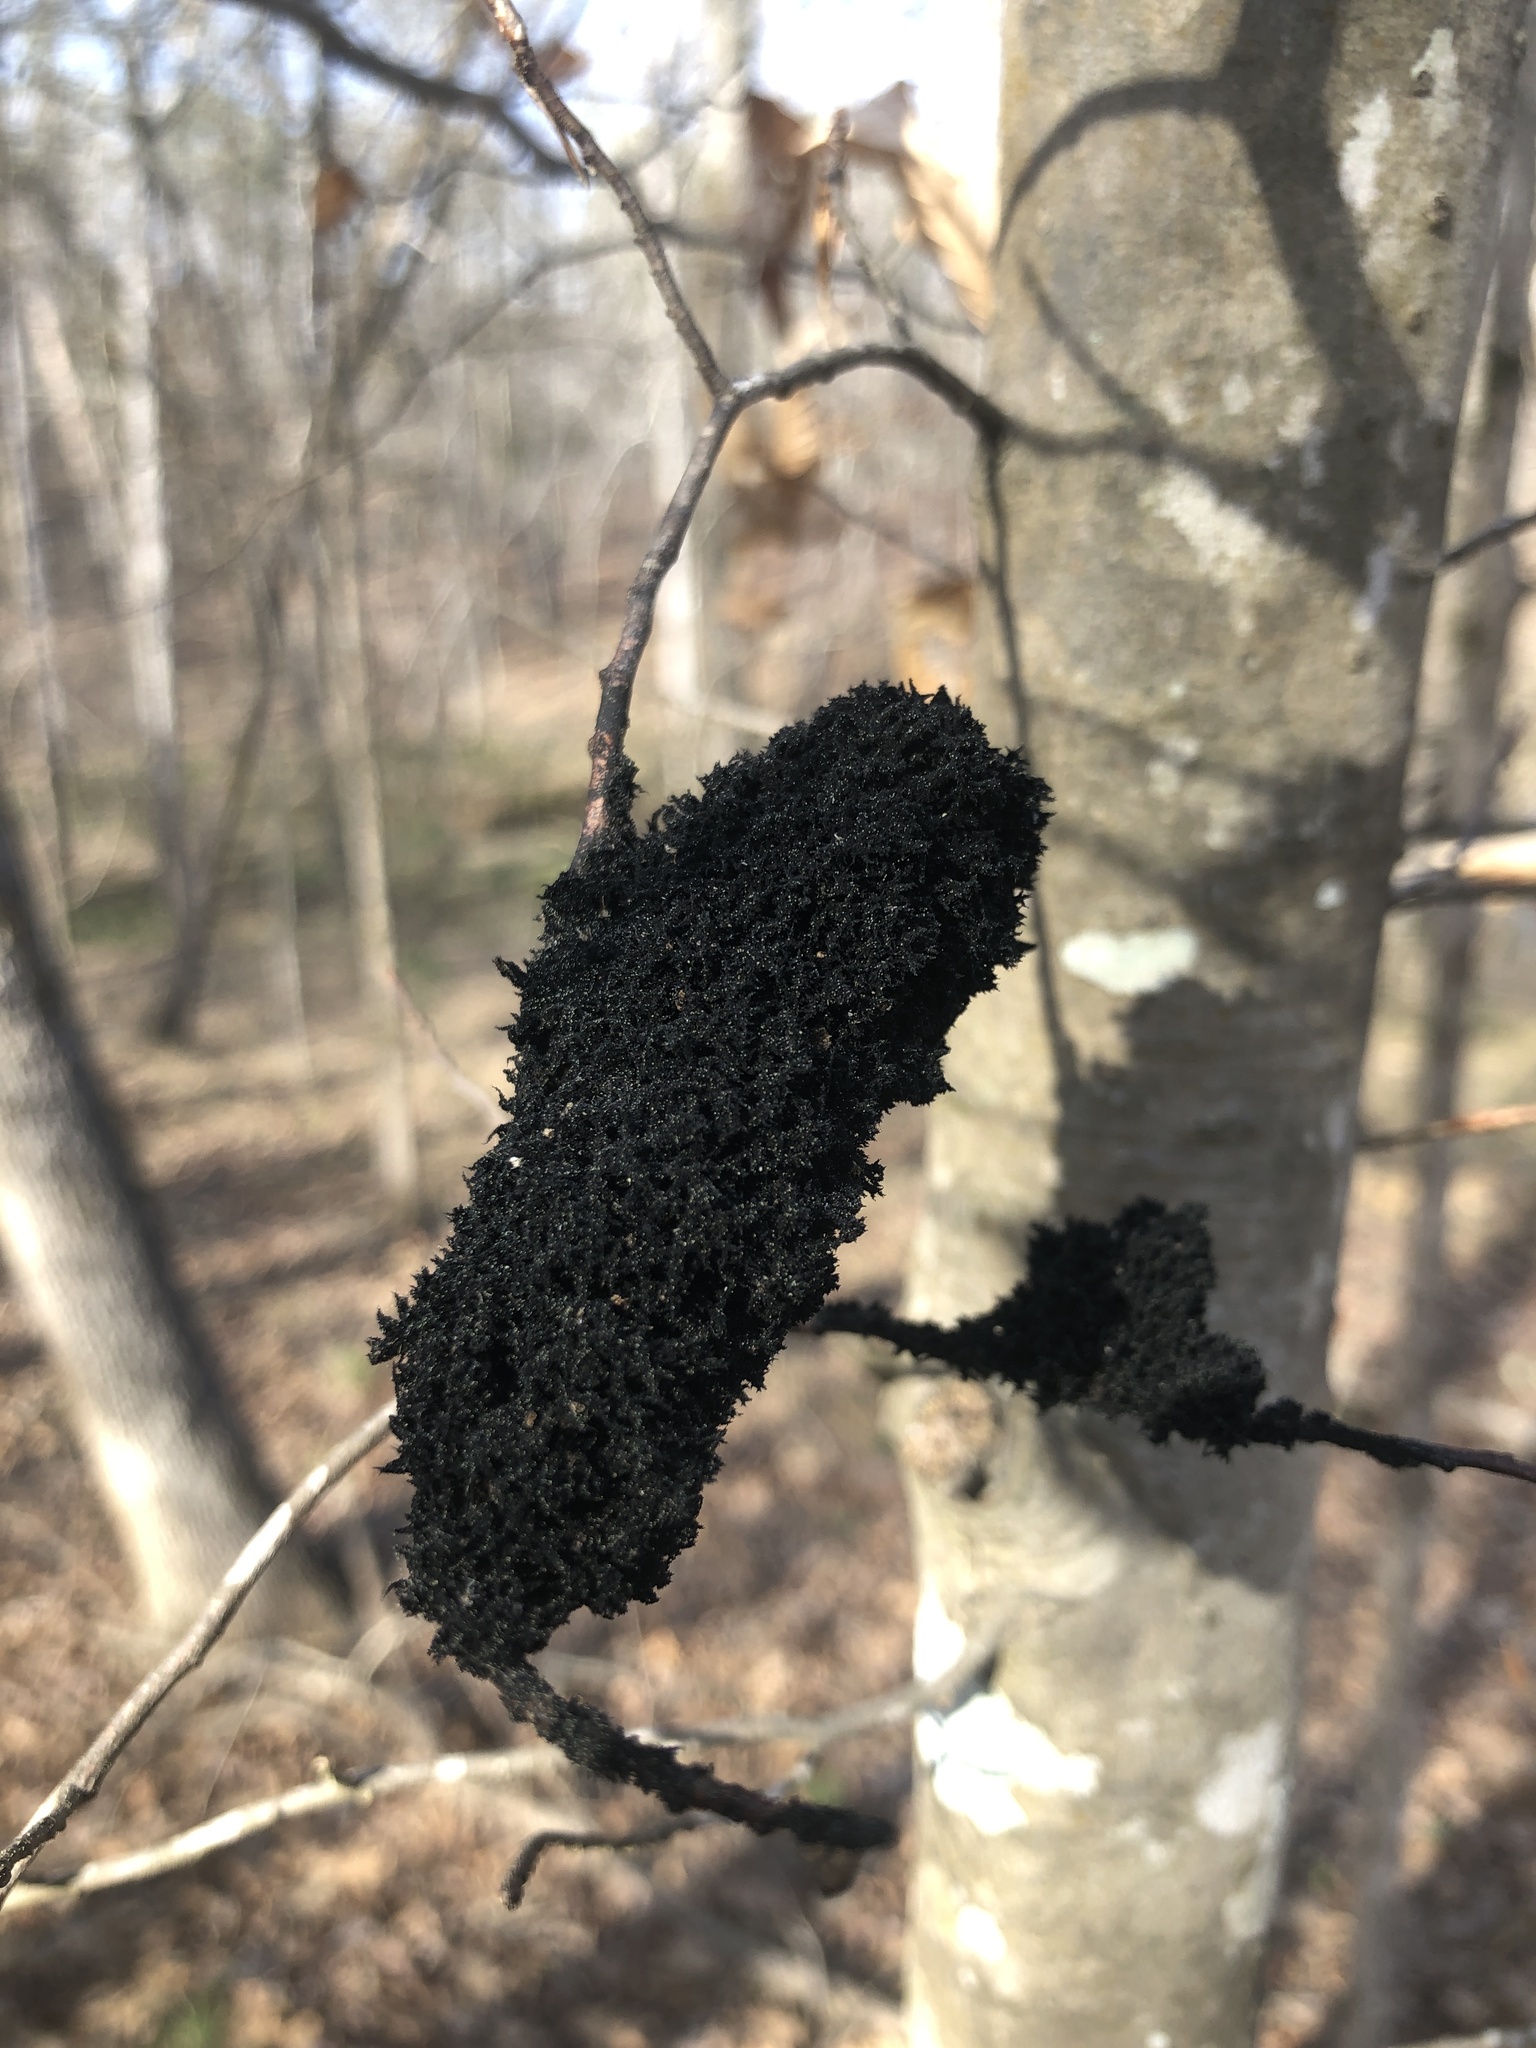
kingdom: Fungi
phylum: Ascomycota
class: Dothideomycetes
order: Capnodiales
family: Capnodiaceae
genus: Scorias
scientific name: Scorias spongiosa
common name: Black sooty mold
